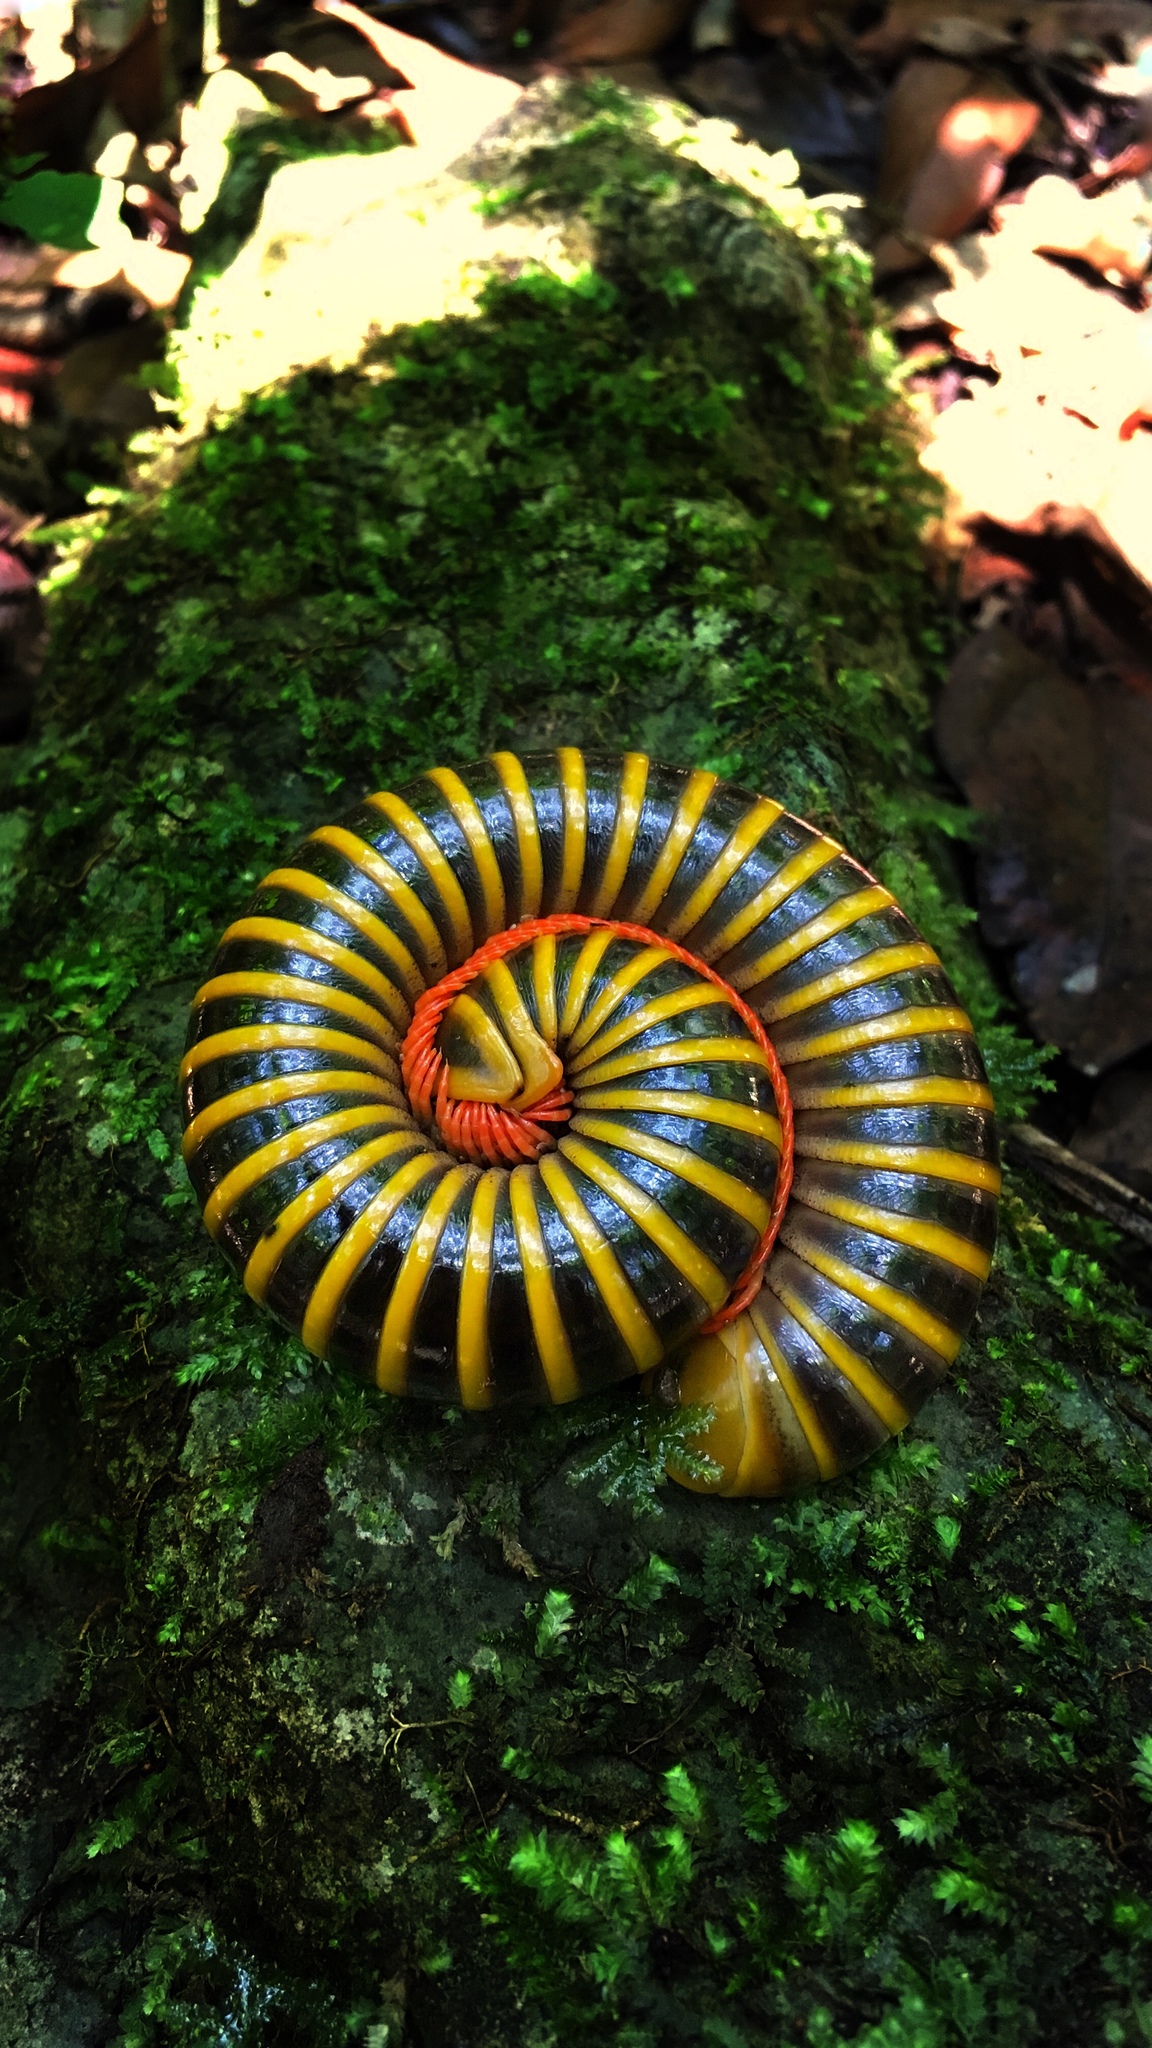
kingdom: Animalia
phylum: Arthropoda
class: Diplopoda
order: Spirobolida
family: Messicobolidae
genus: Messicobolus
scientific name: Messicobolus magnificus
